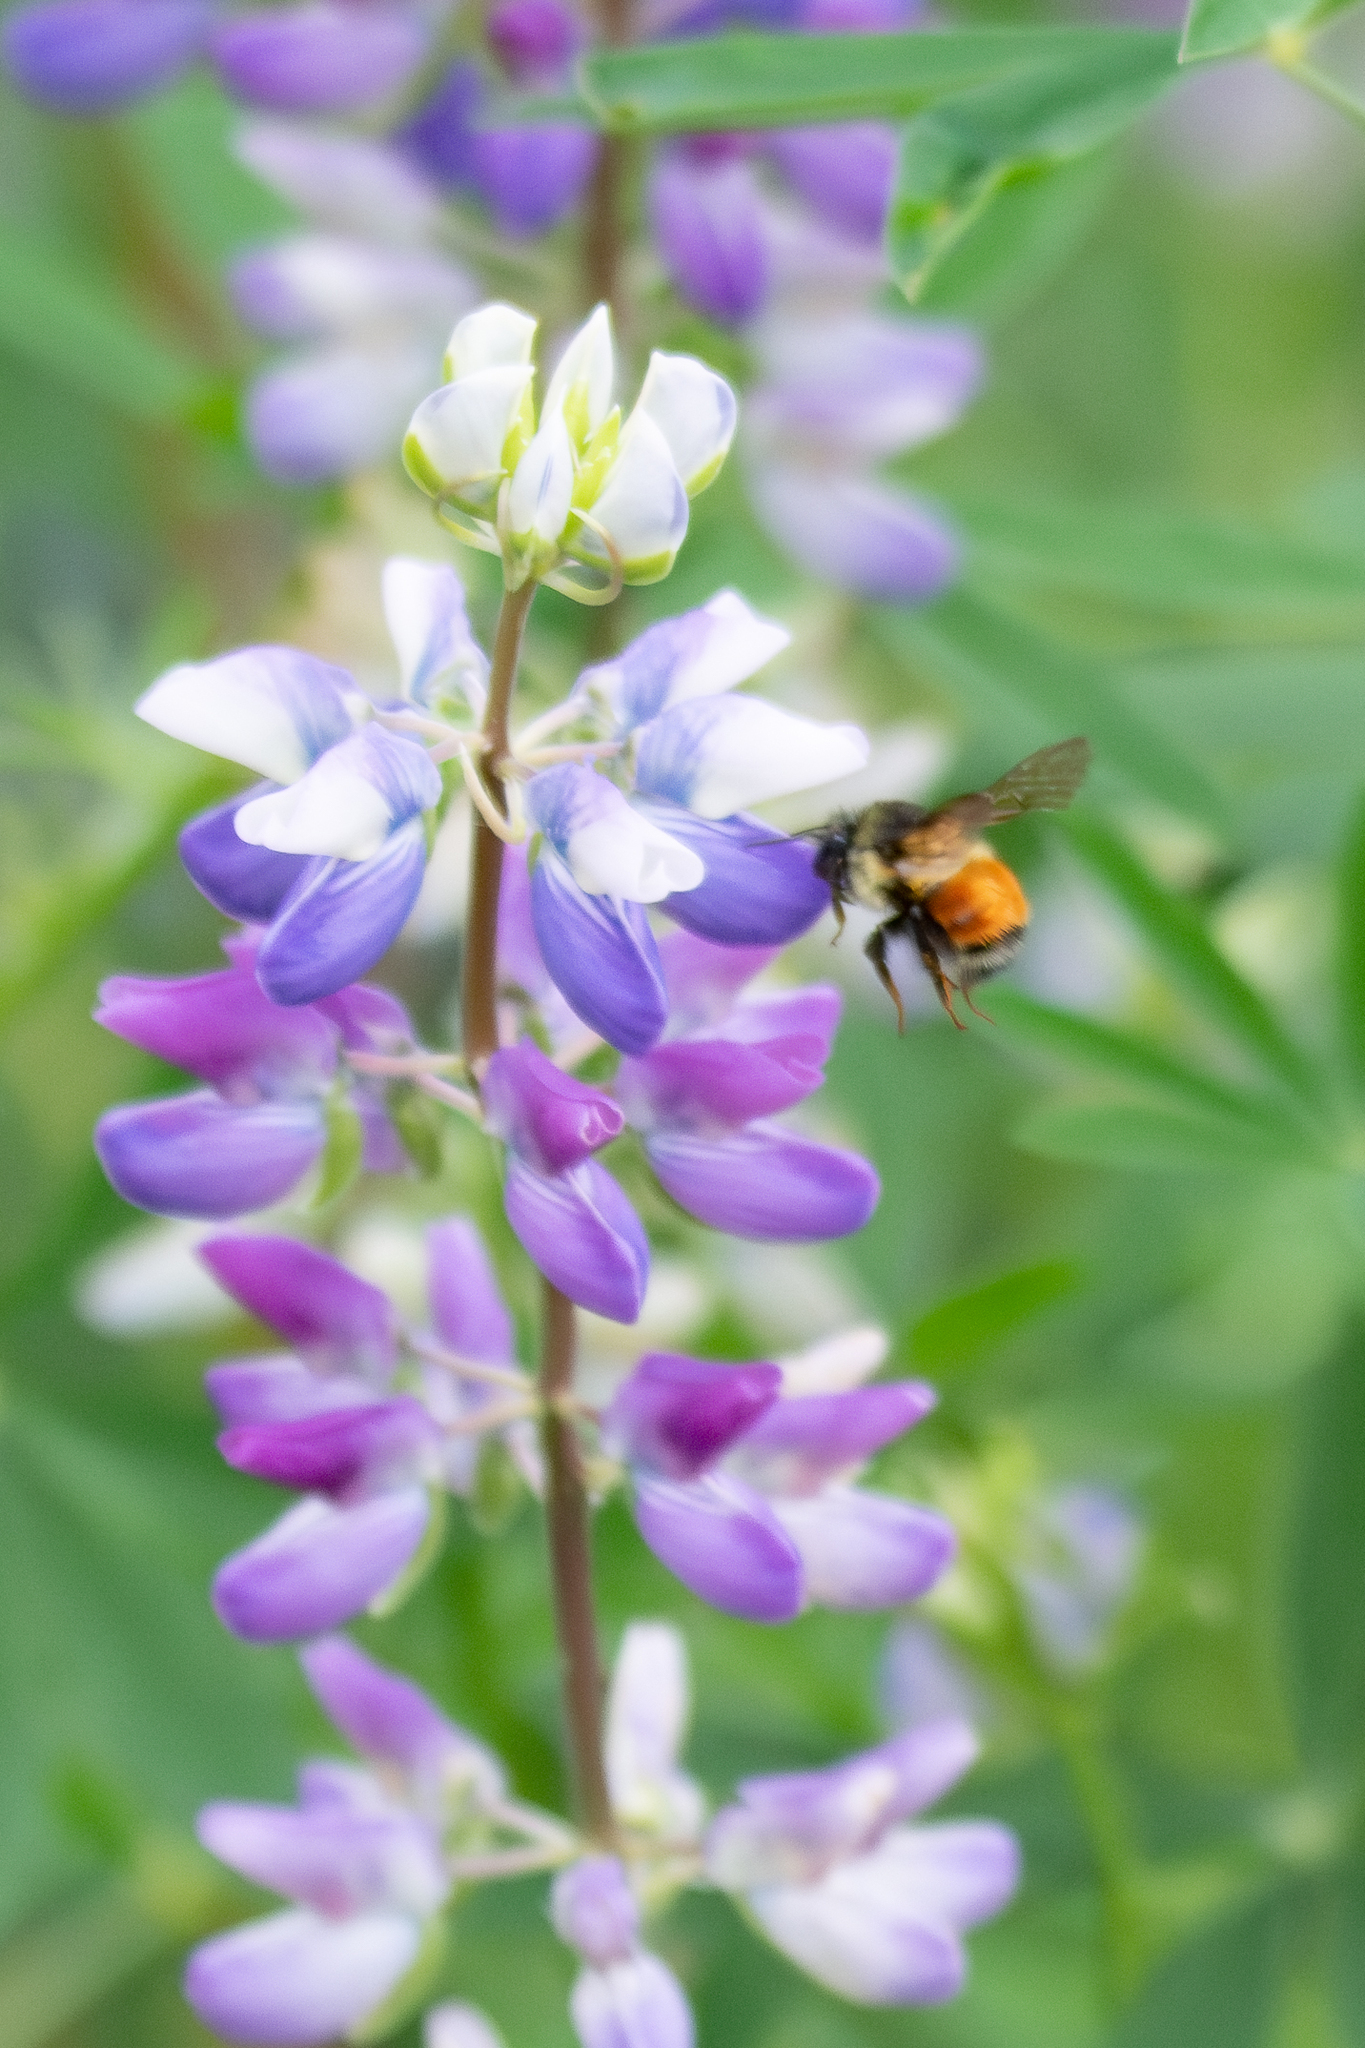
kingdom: Animalia
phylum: Arthropoda
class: Insecta
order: Hymenoptera
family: Apidae
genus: Bombus
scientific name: Bombus melanopygus
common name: Black tail bumble bee
